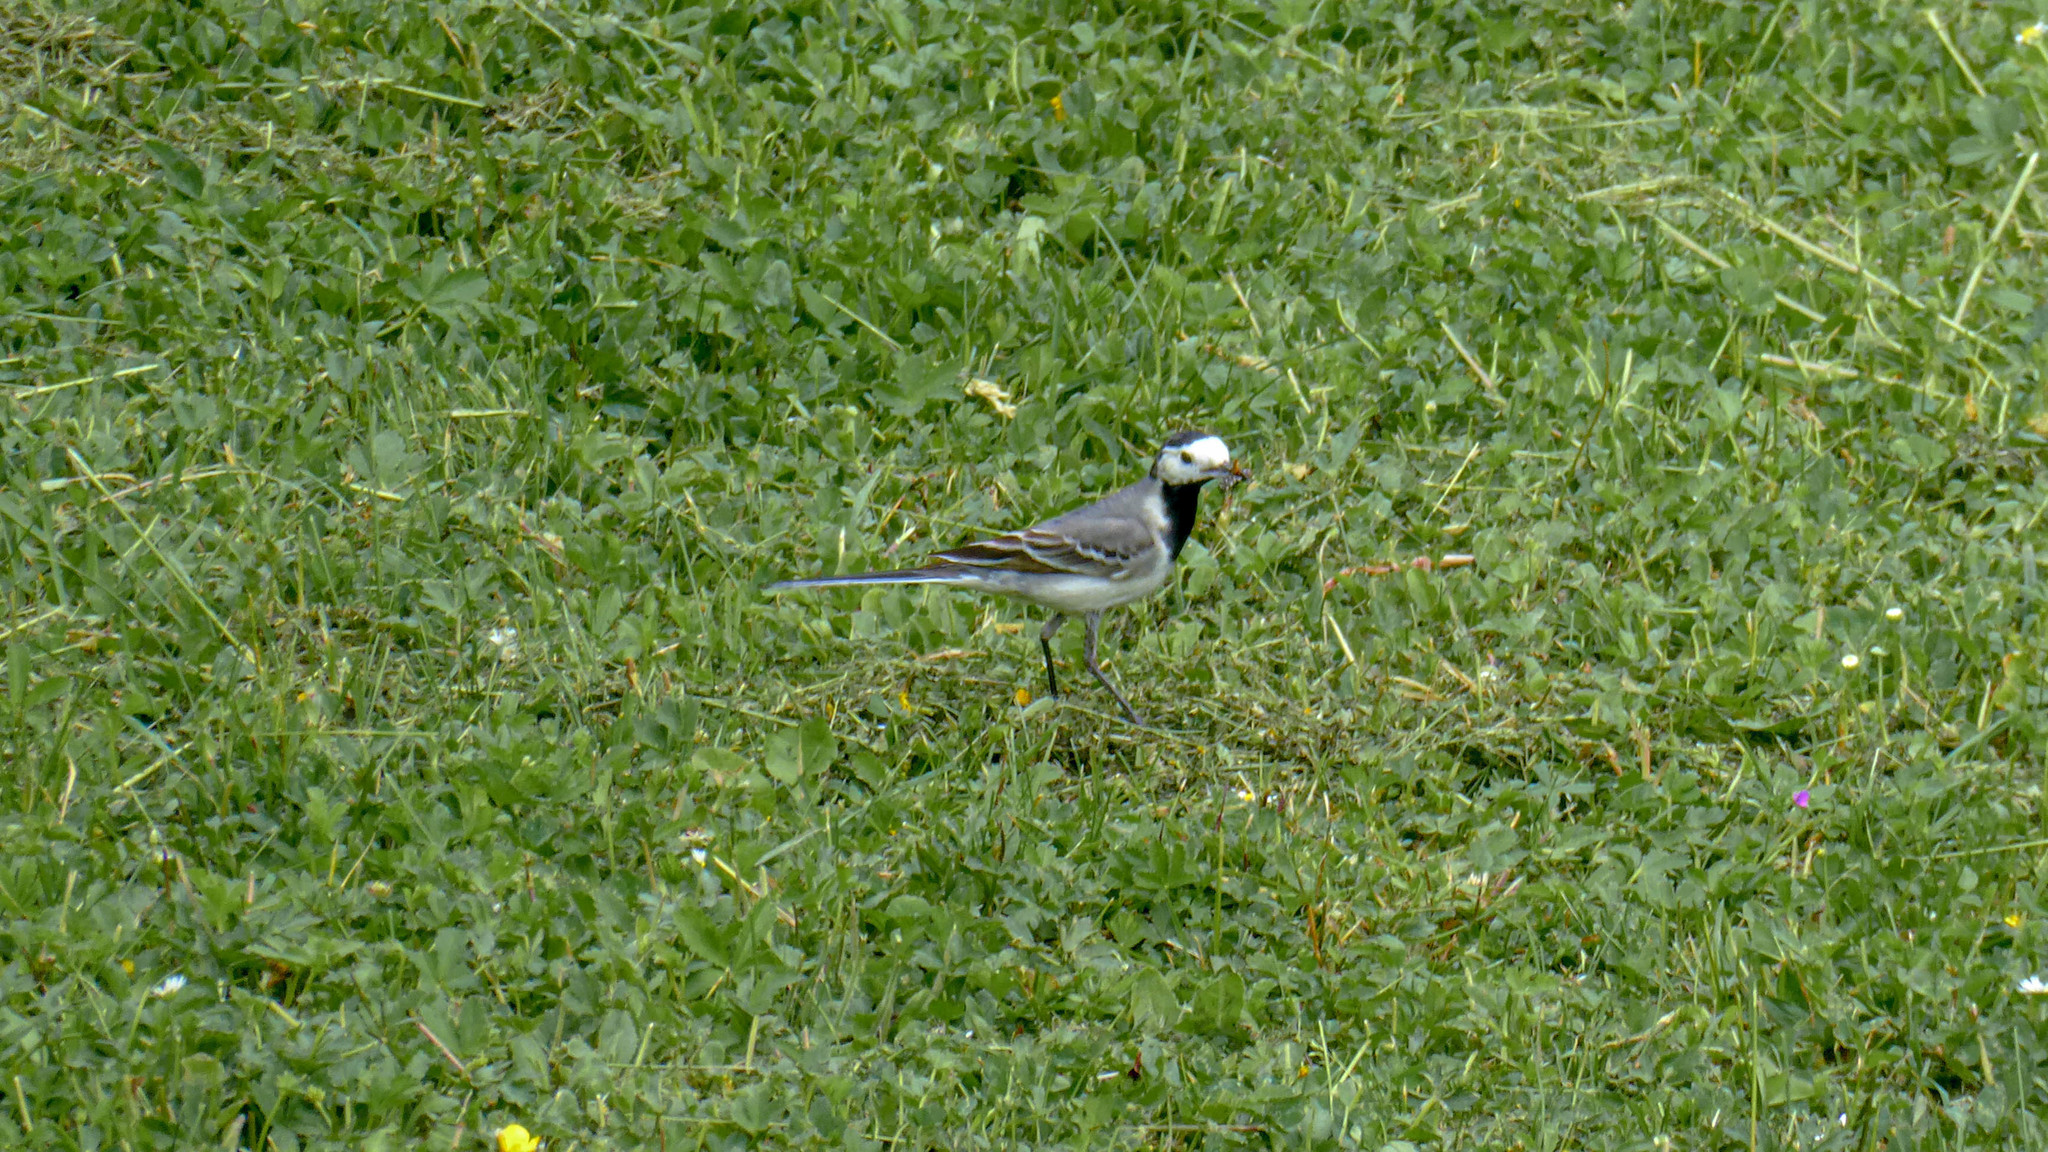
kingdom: Animalia
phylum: Chordata
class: Aves
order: Passeriformes
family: Motacillidae
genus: Motacilla
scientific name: Motacilla alba
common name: White wagtail
